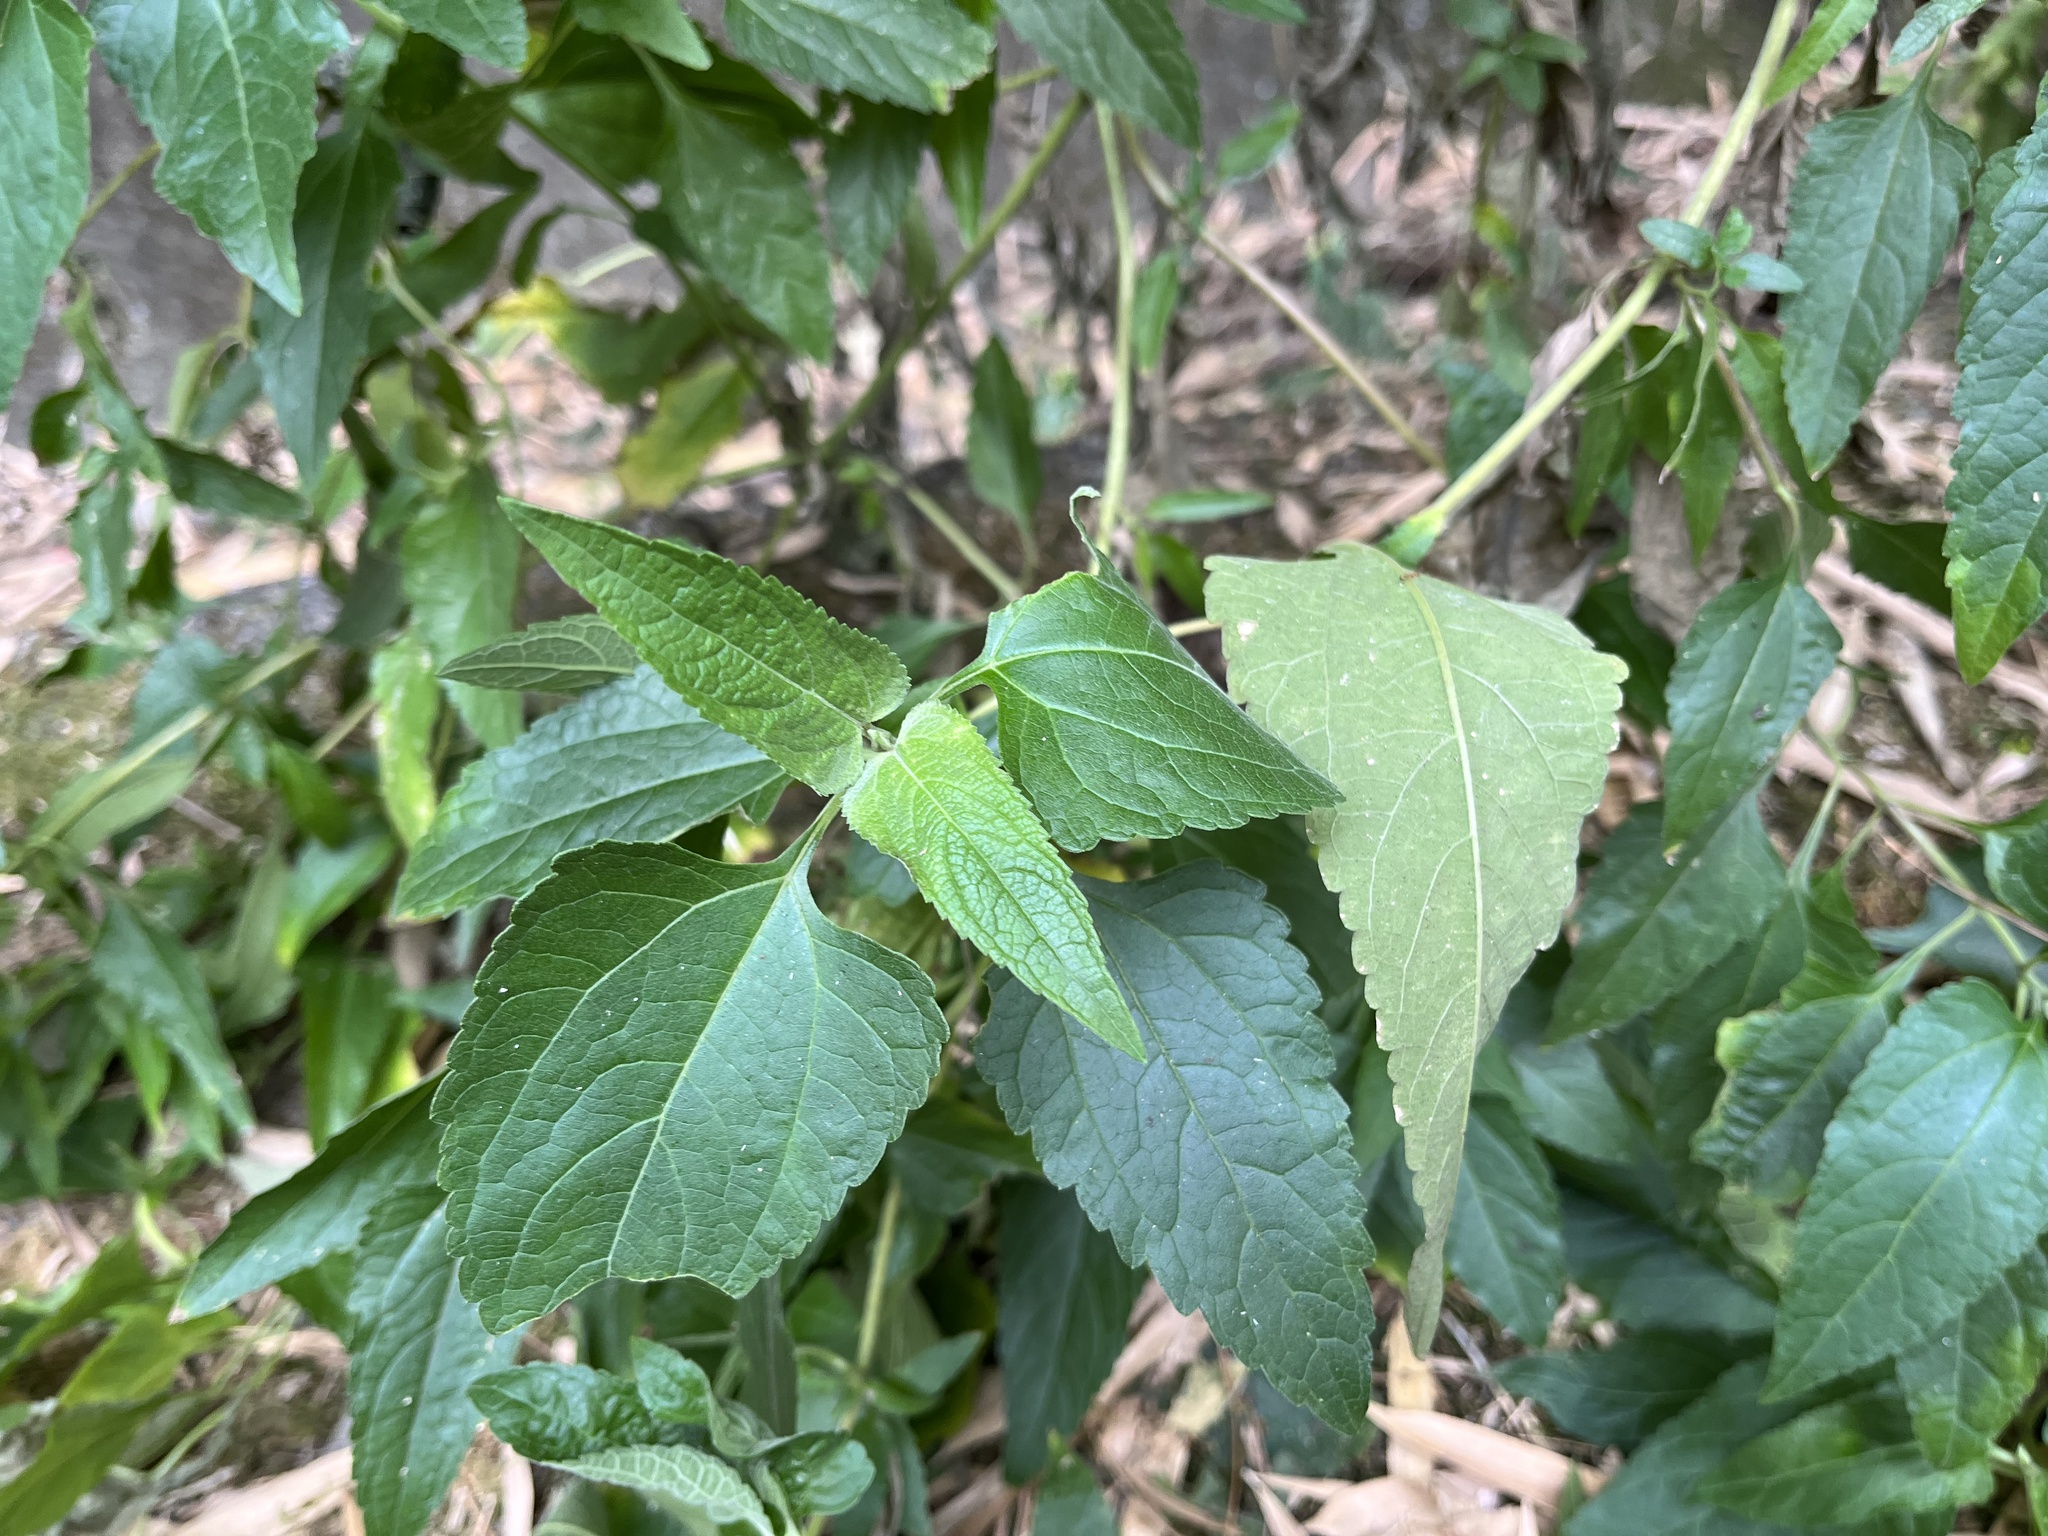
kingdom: Plantae
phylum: Tracheophyta
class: Magnoliopsida
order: Asterales
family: Asteraceae
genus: Austroeupatorium
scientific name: Austroeupatorium inulifolium
